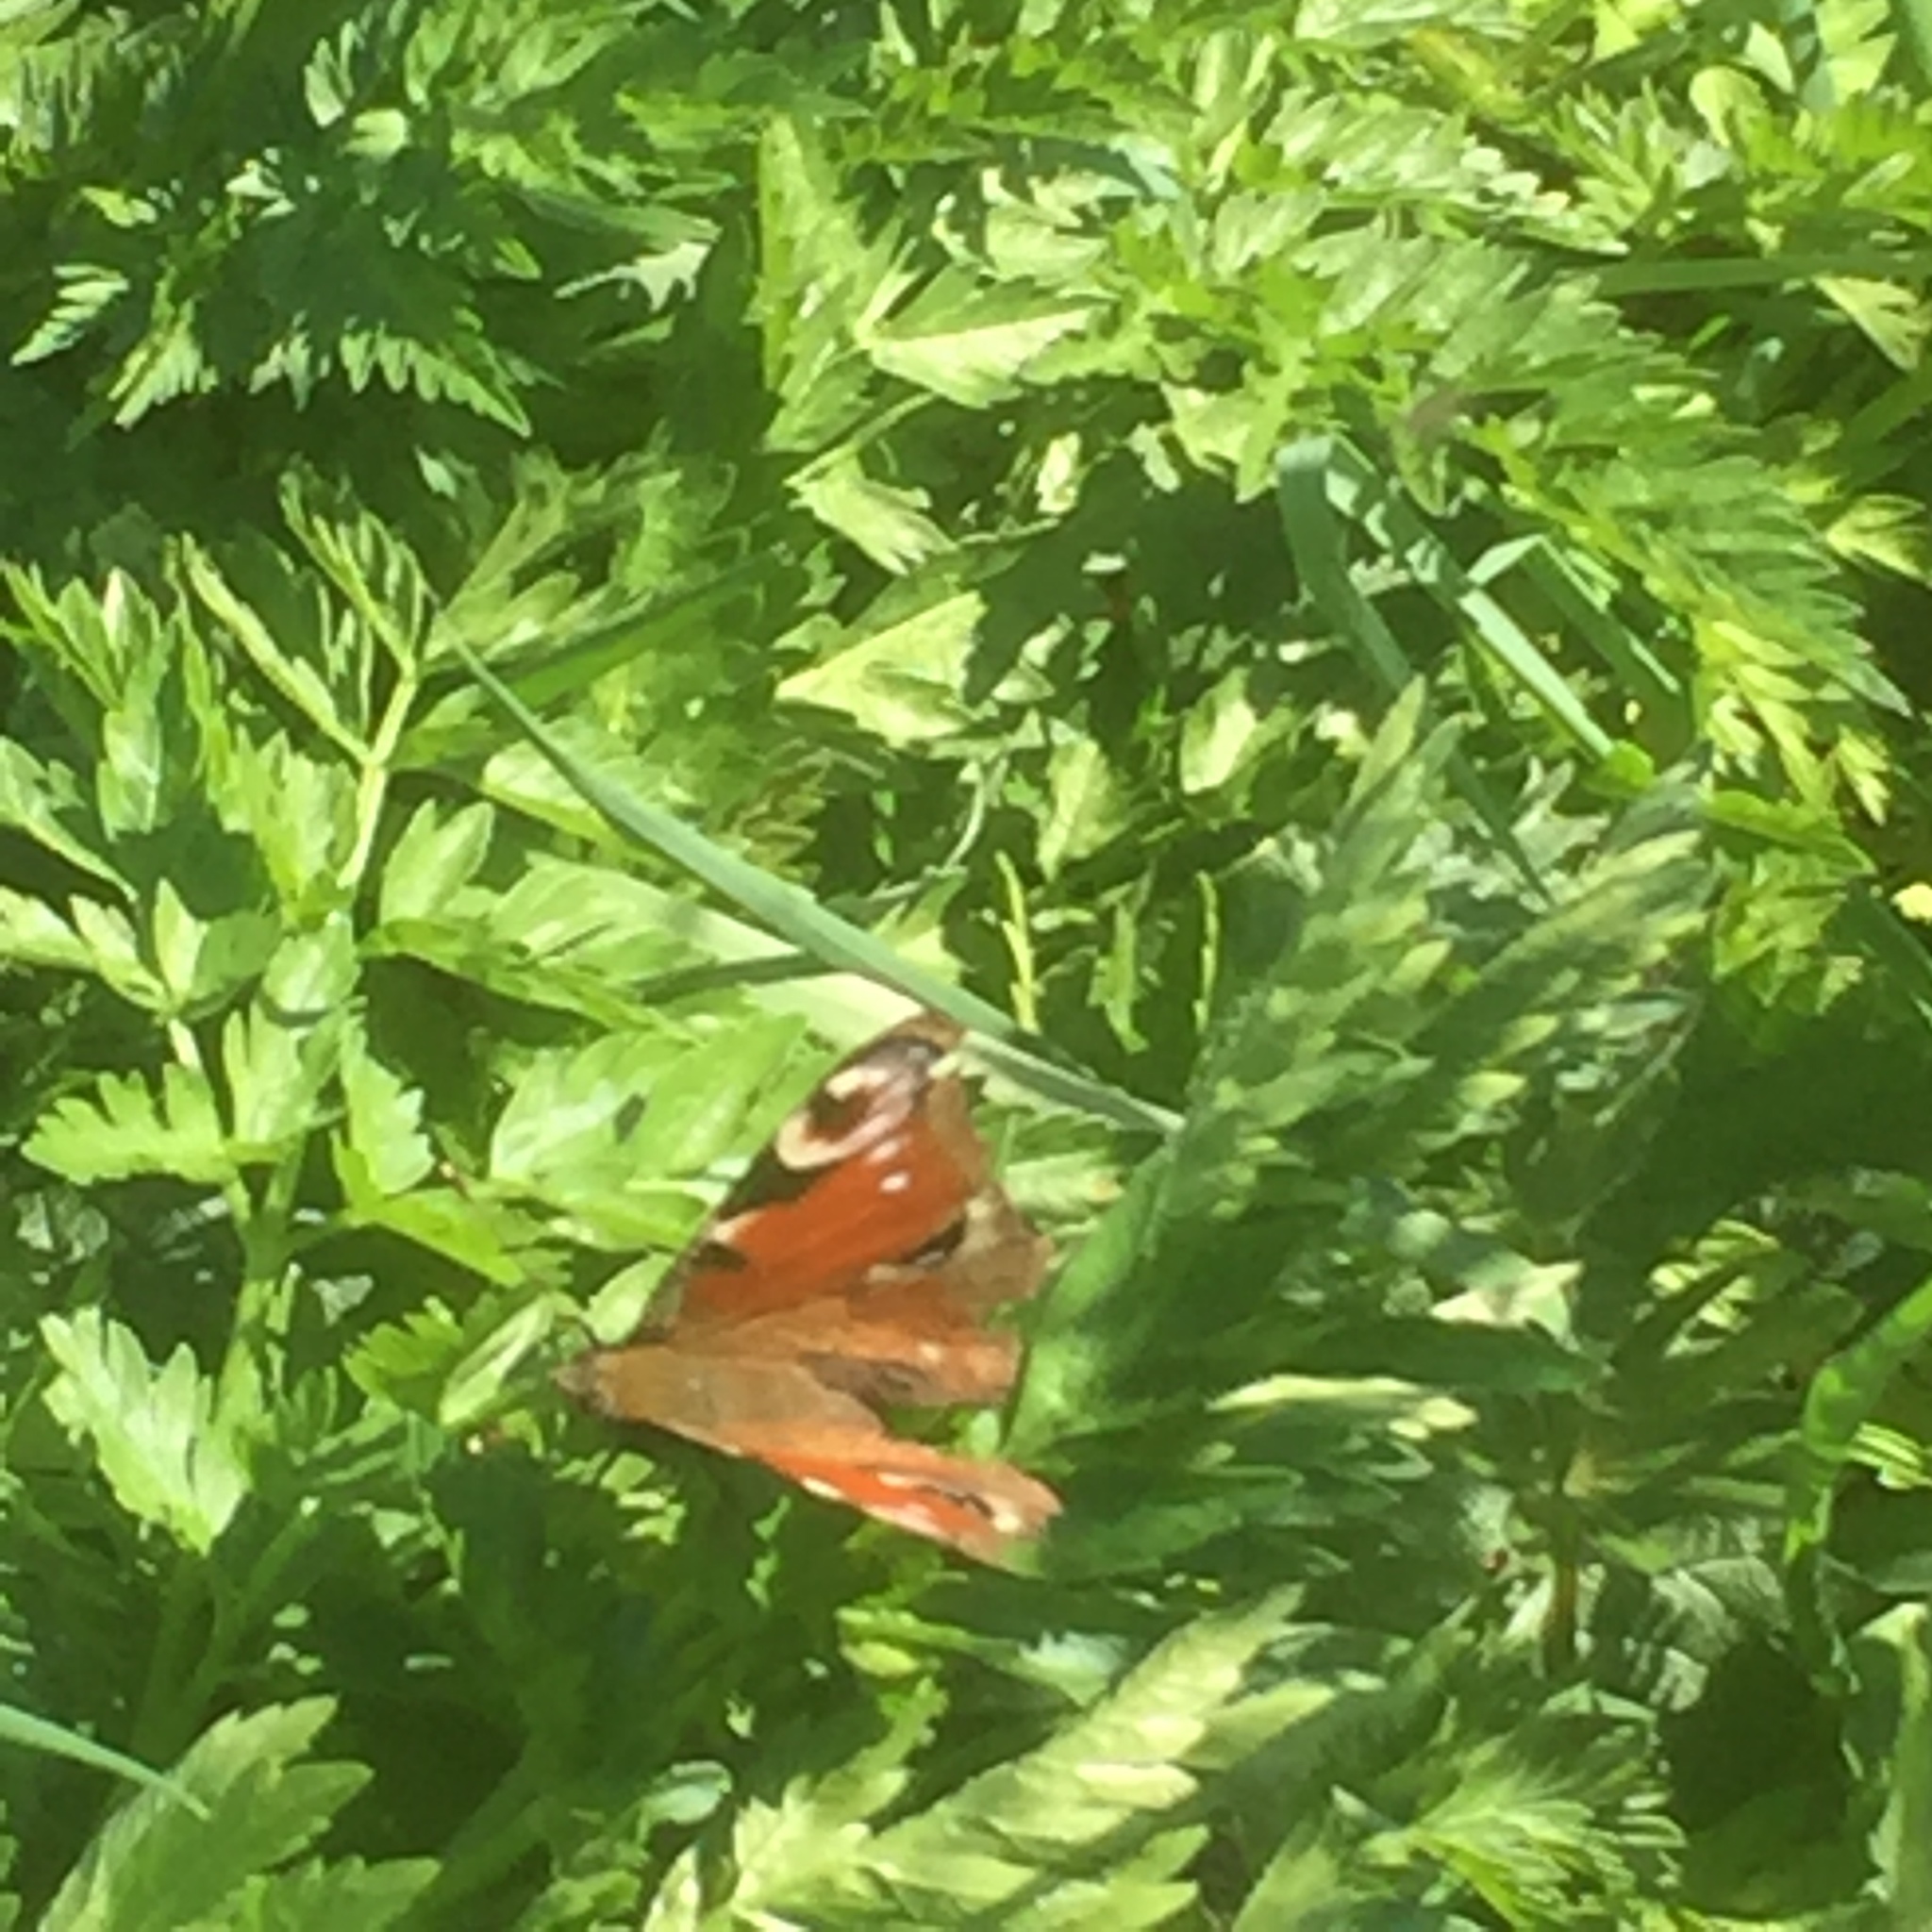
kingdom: Animalia
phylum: Arthropoda
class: Insecta
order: Lepidoptera
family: Nymphalidae
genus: Aglais
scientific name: Aglais io
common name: Peacock
